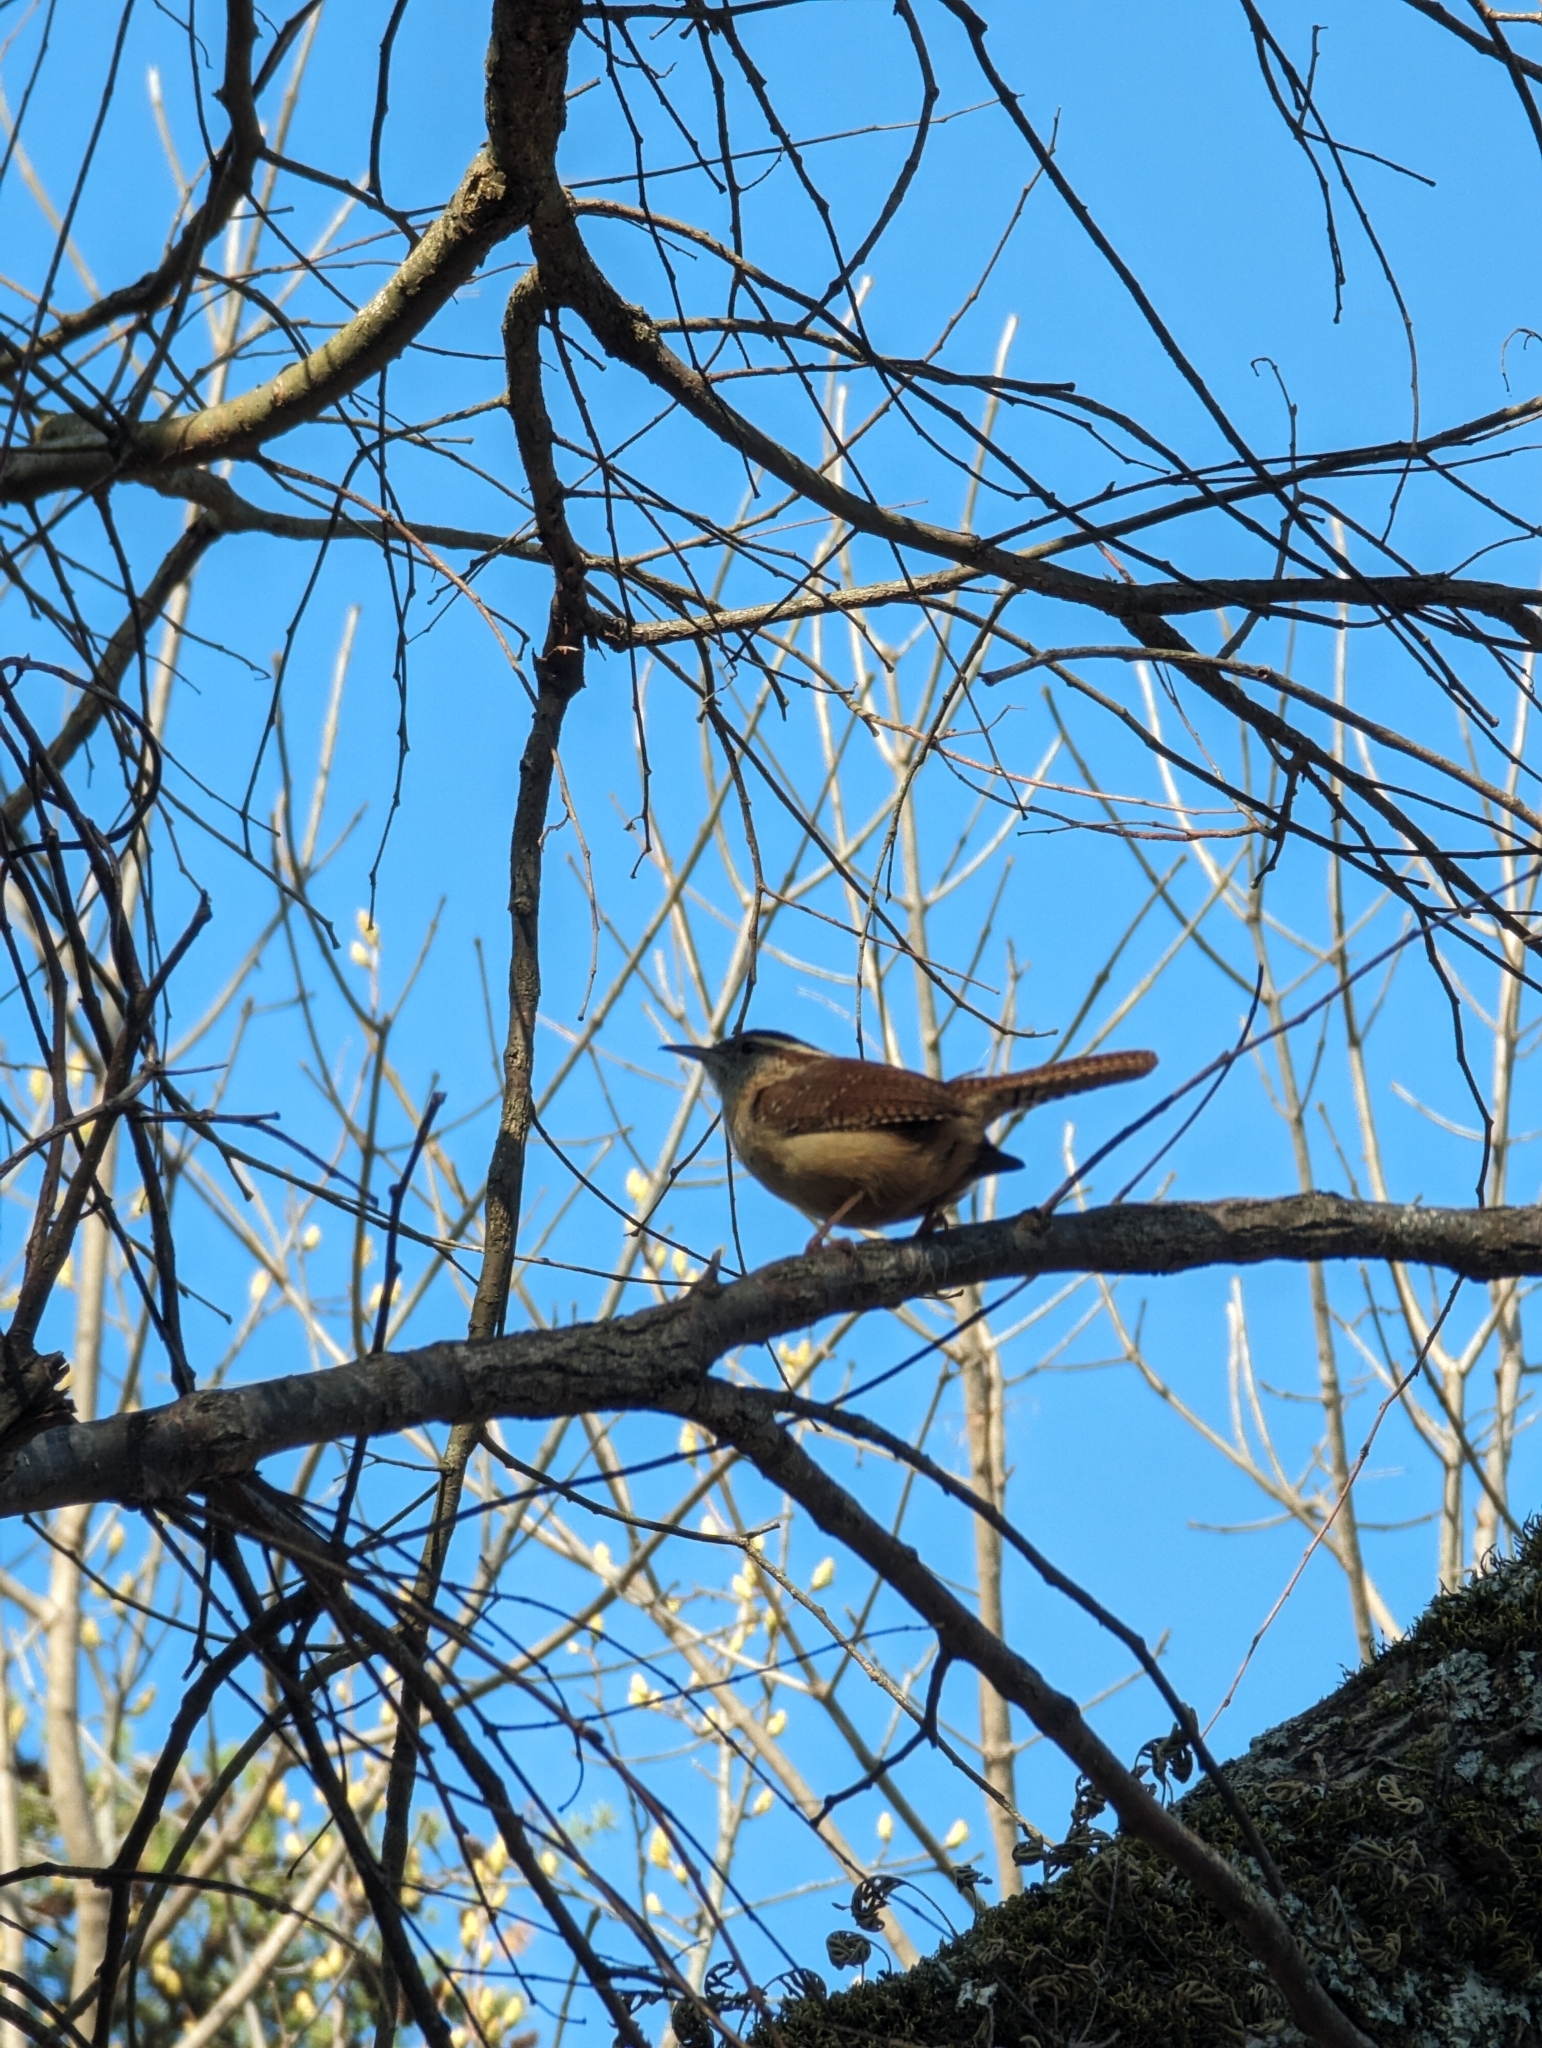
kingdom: Animalia
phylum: Chordata
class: Aves
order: Passeriformes
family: Troglodytidae
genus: Thryothorus
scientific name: Thryothorus ludovicianus
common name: Carolina wren
